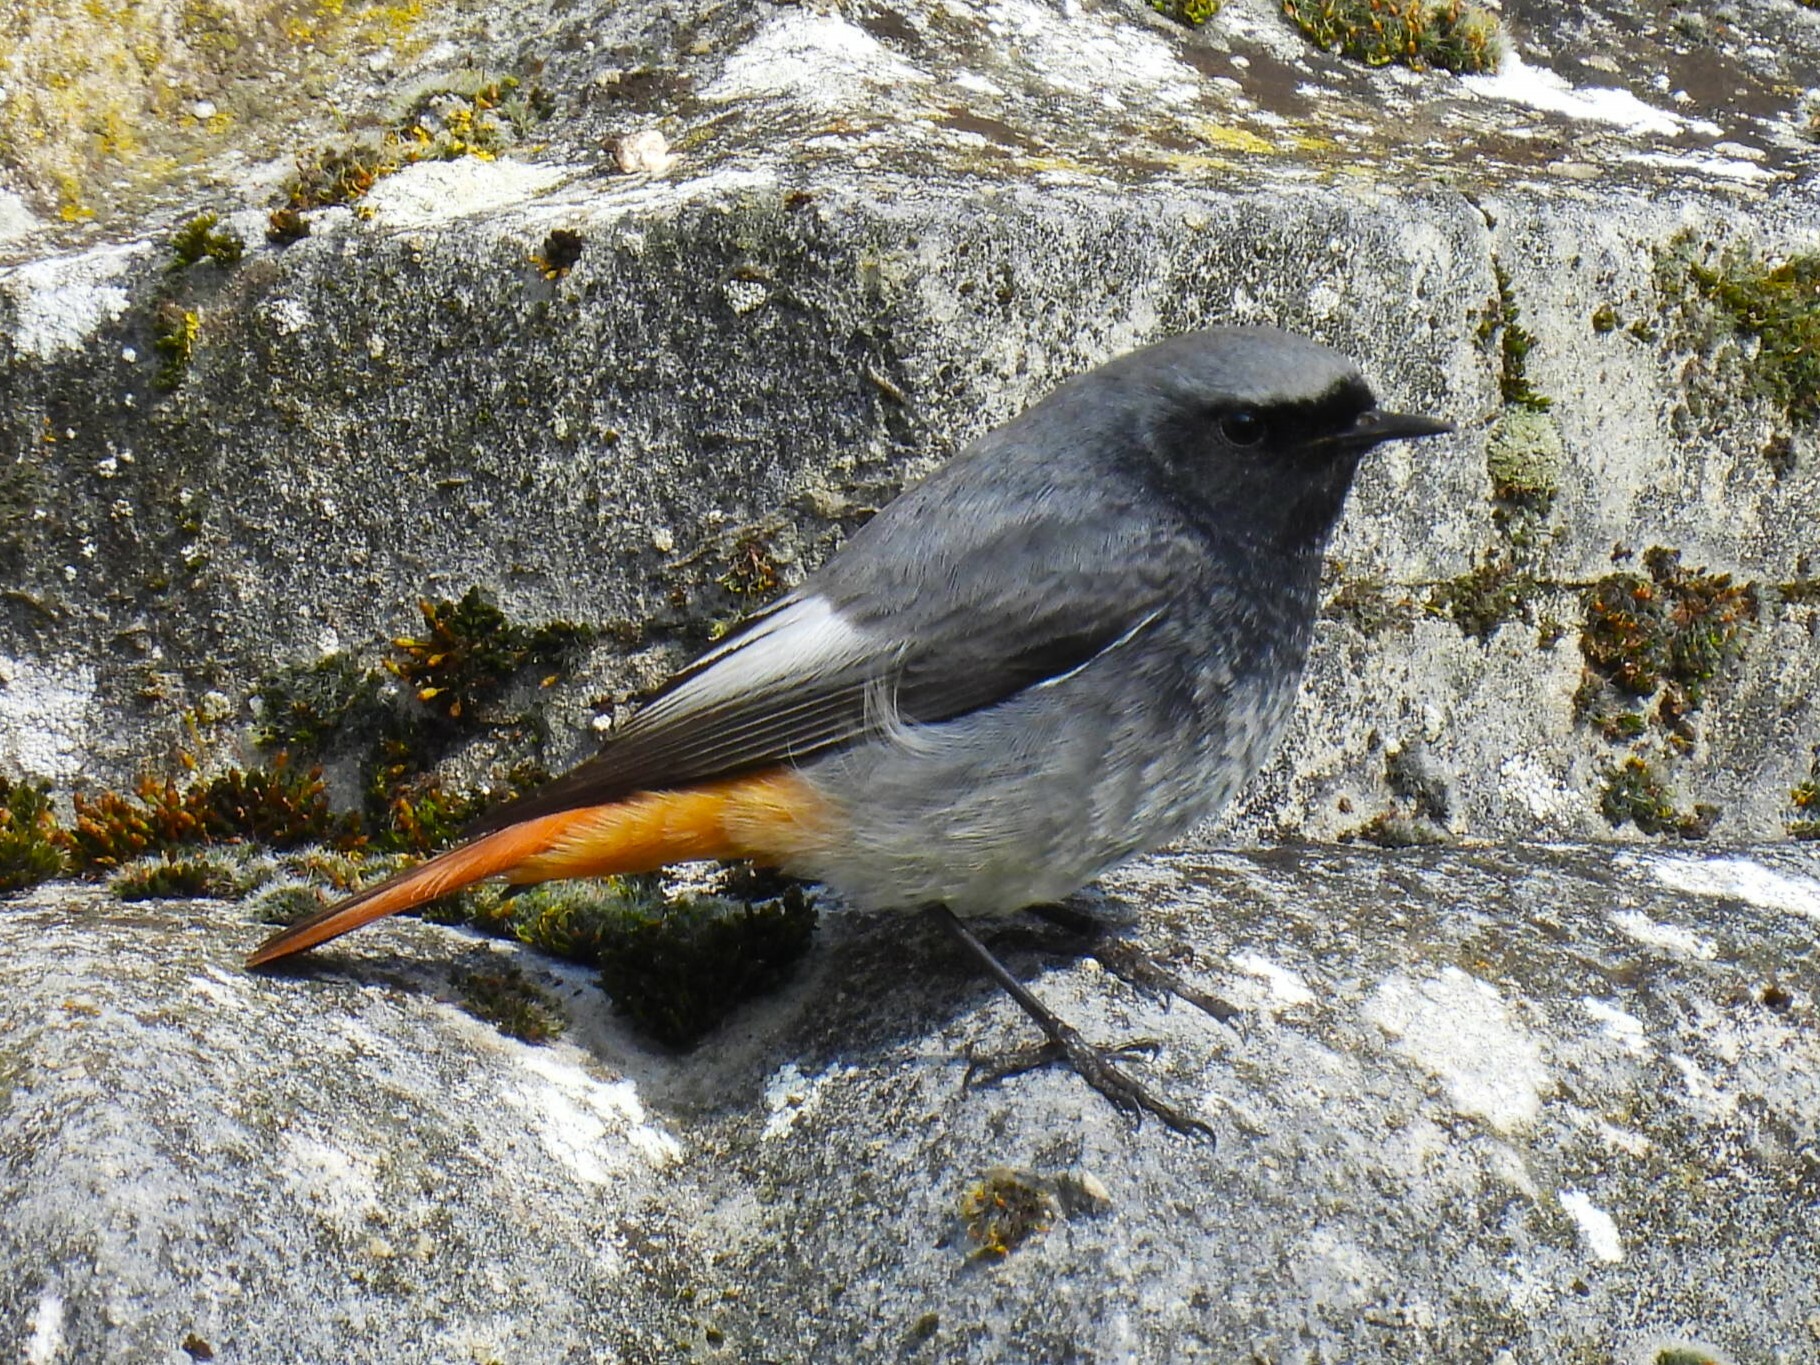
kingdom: Animalia
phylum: Chordata
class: Aves
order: Passeriformes
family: Muscicapidae
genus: Phoenicurus
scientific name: Phoenicurus ochruros
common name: Black redstart
